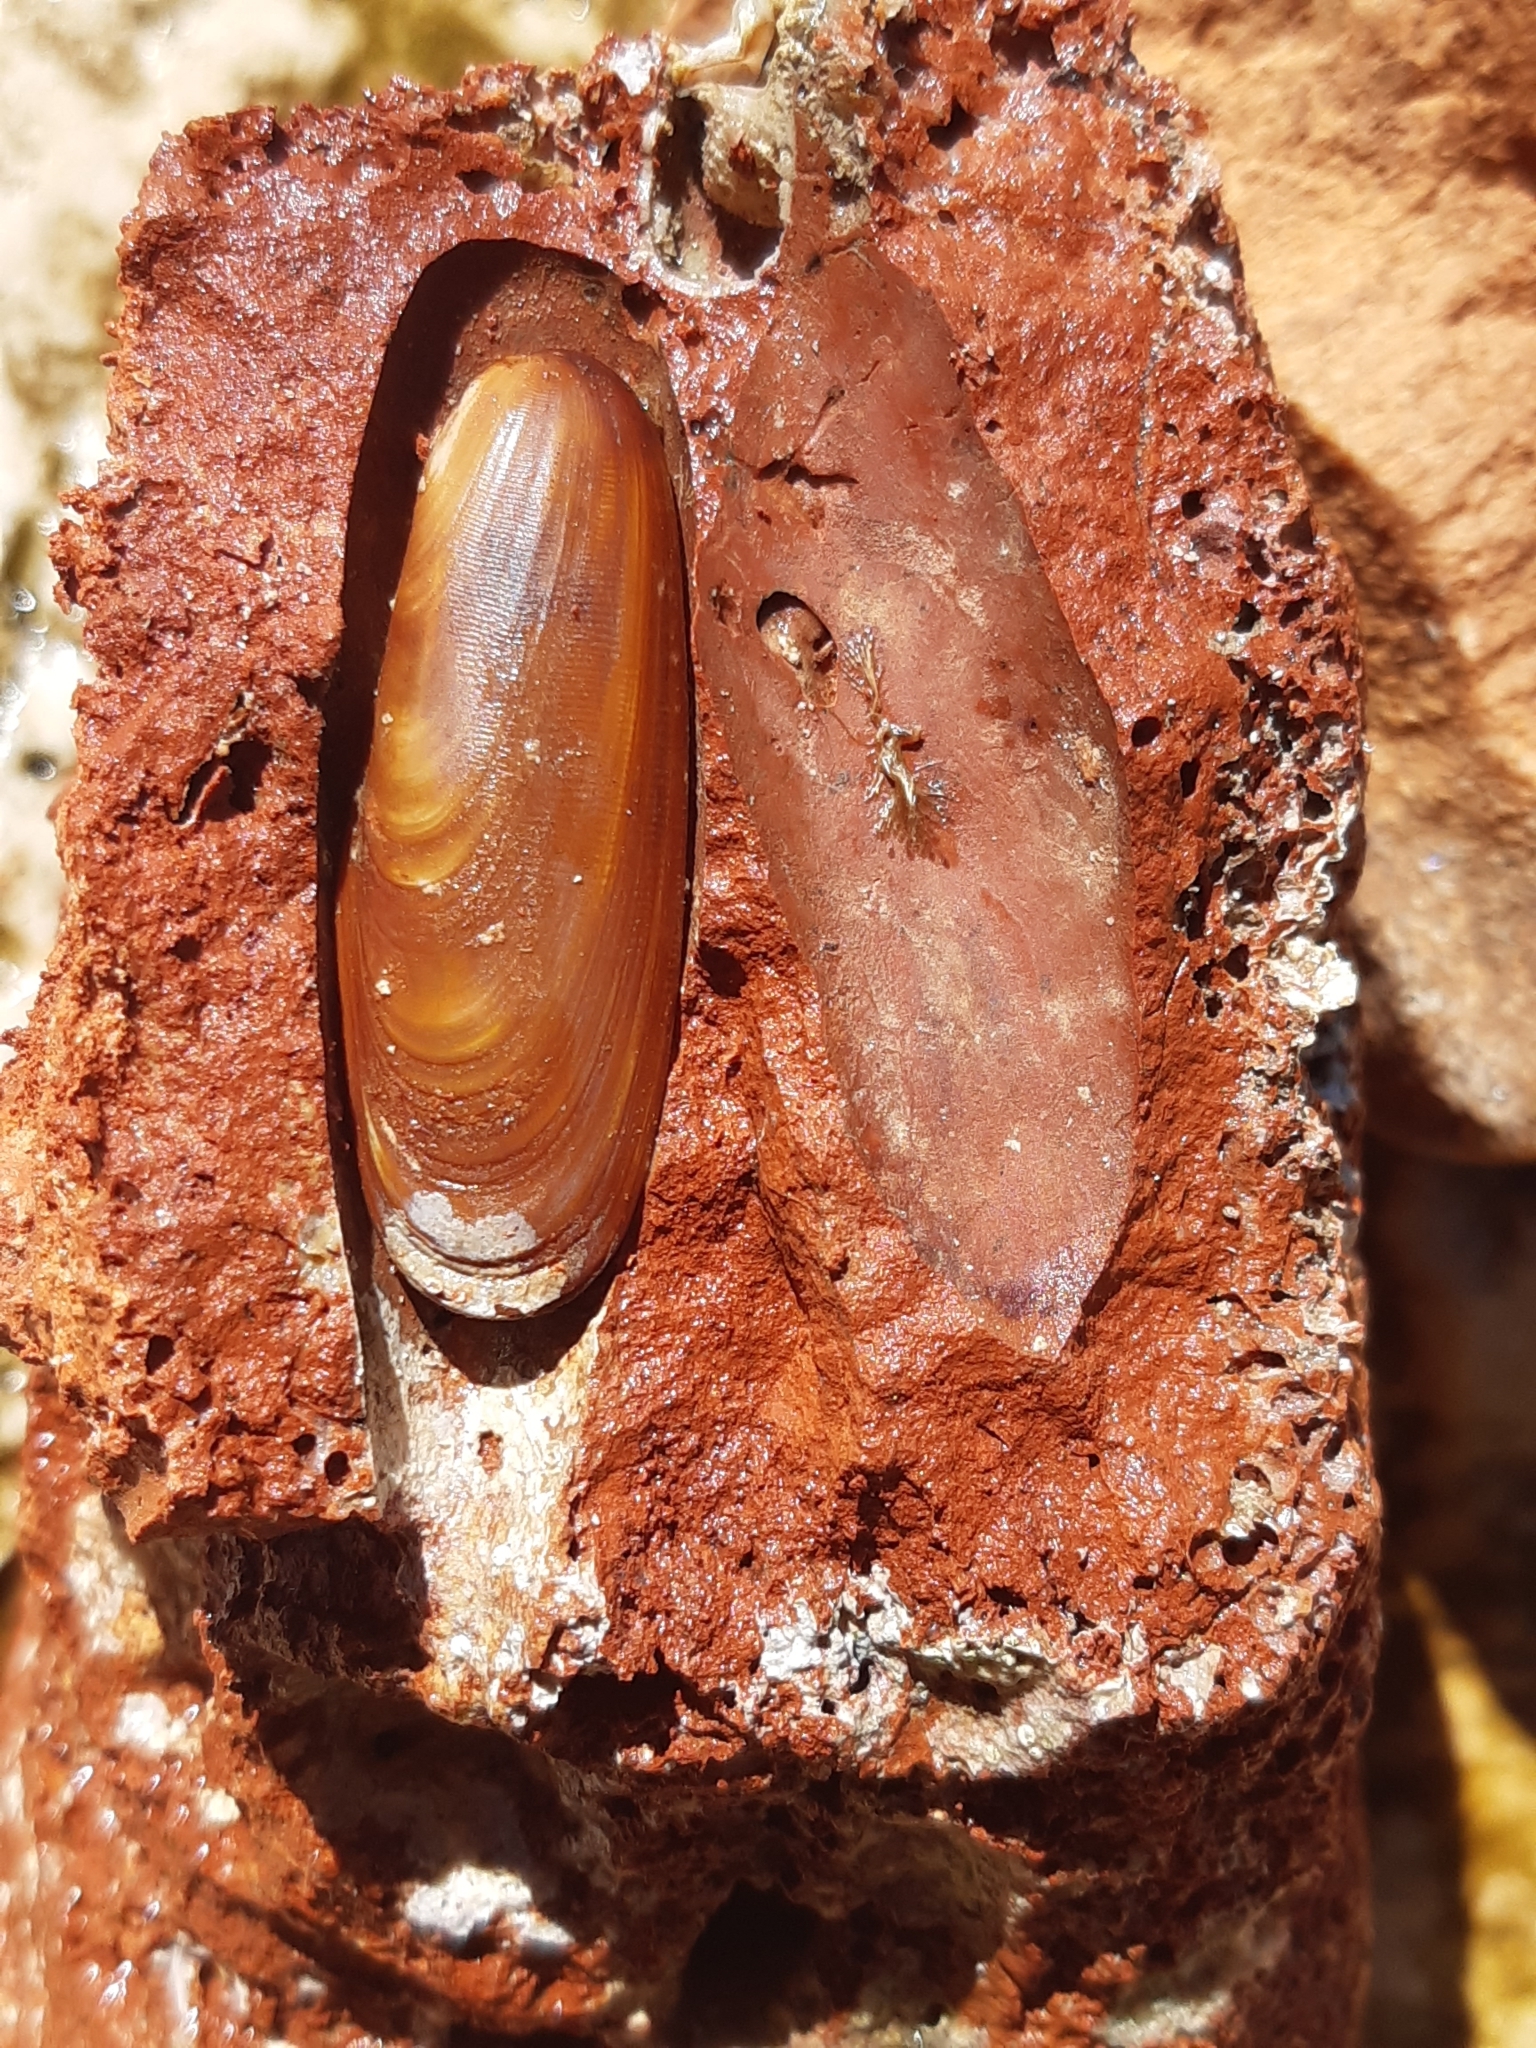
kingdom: Animalia
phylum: Mollusca
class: Bivalvia
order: Mytilida
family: Mytilidae
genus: Lithophaga
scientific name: Lithophaga lithophaga
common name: European date mussel
